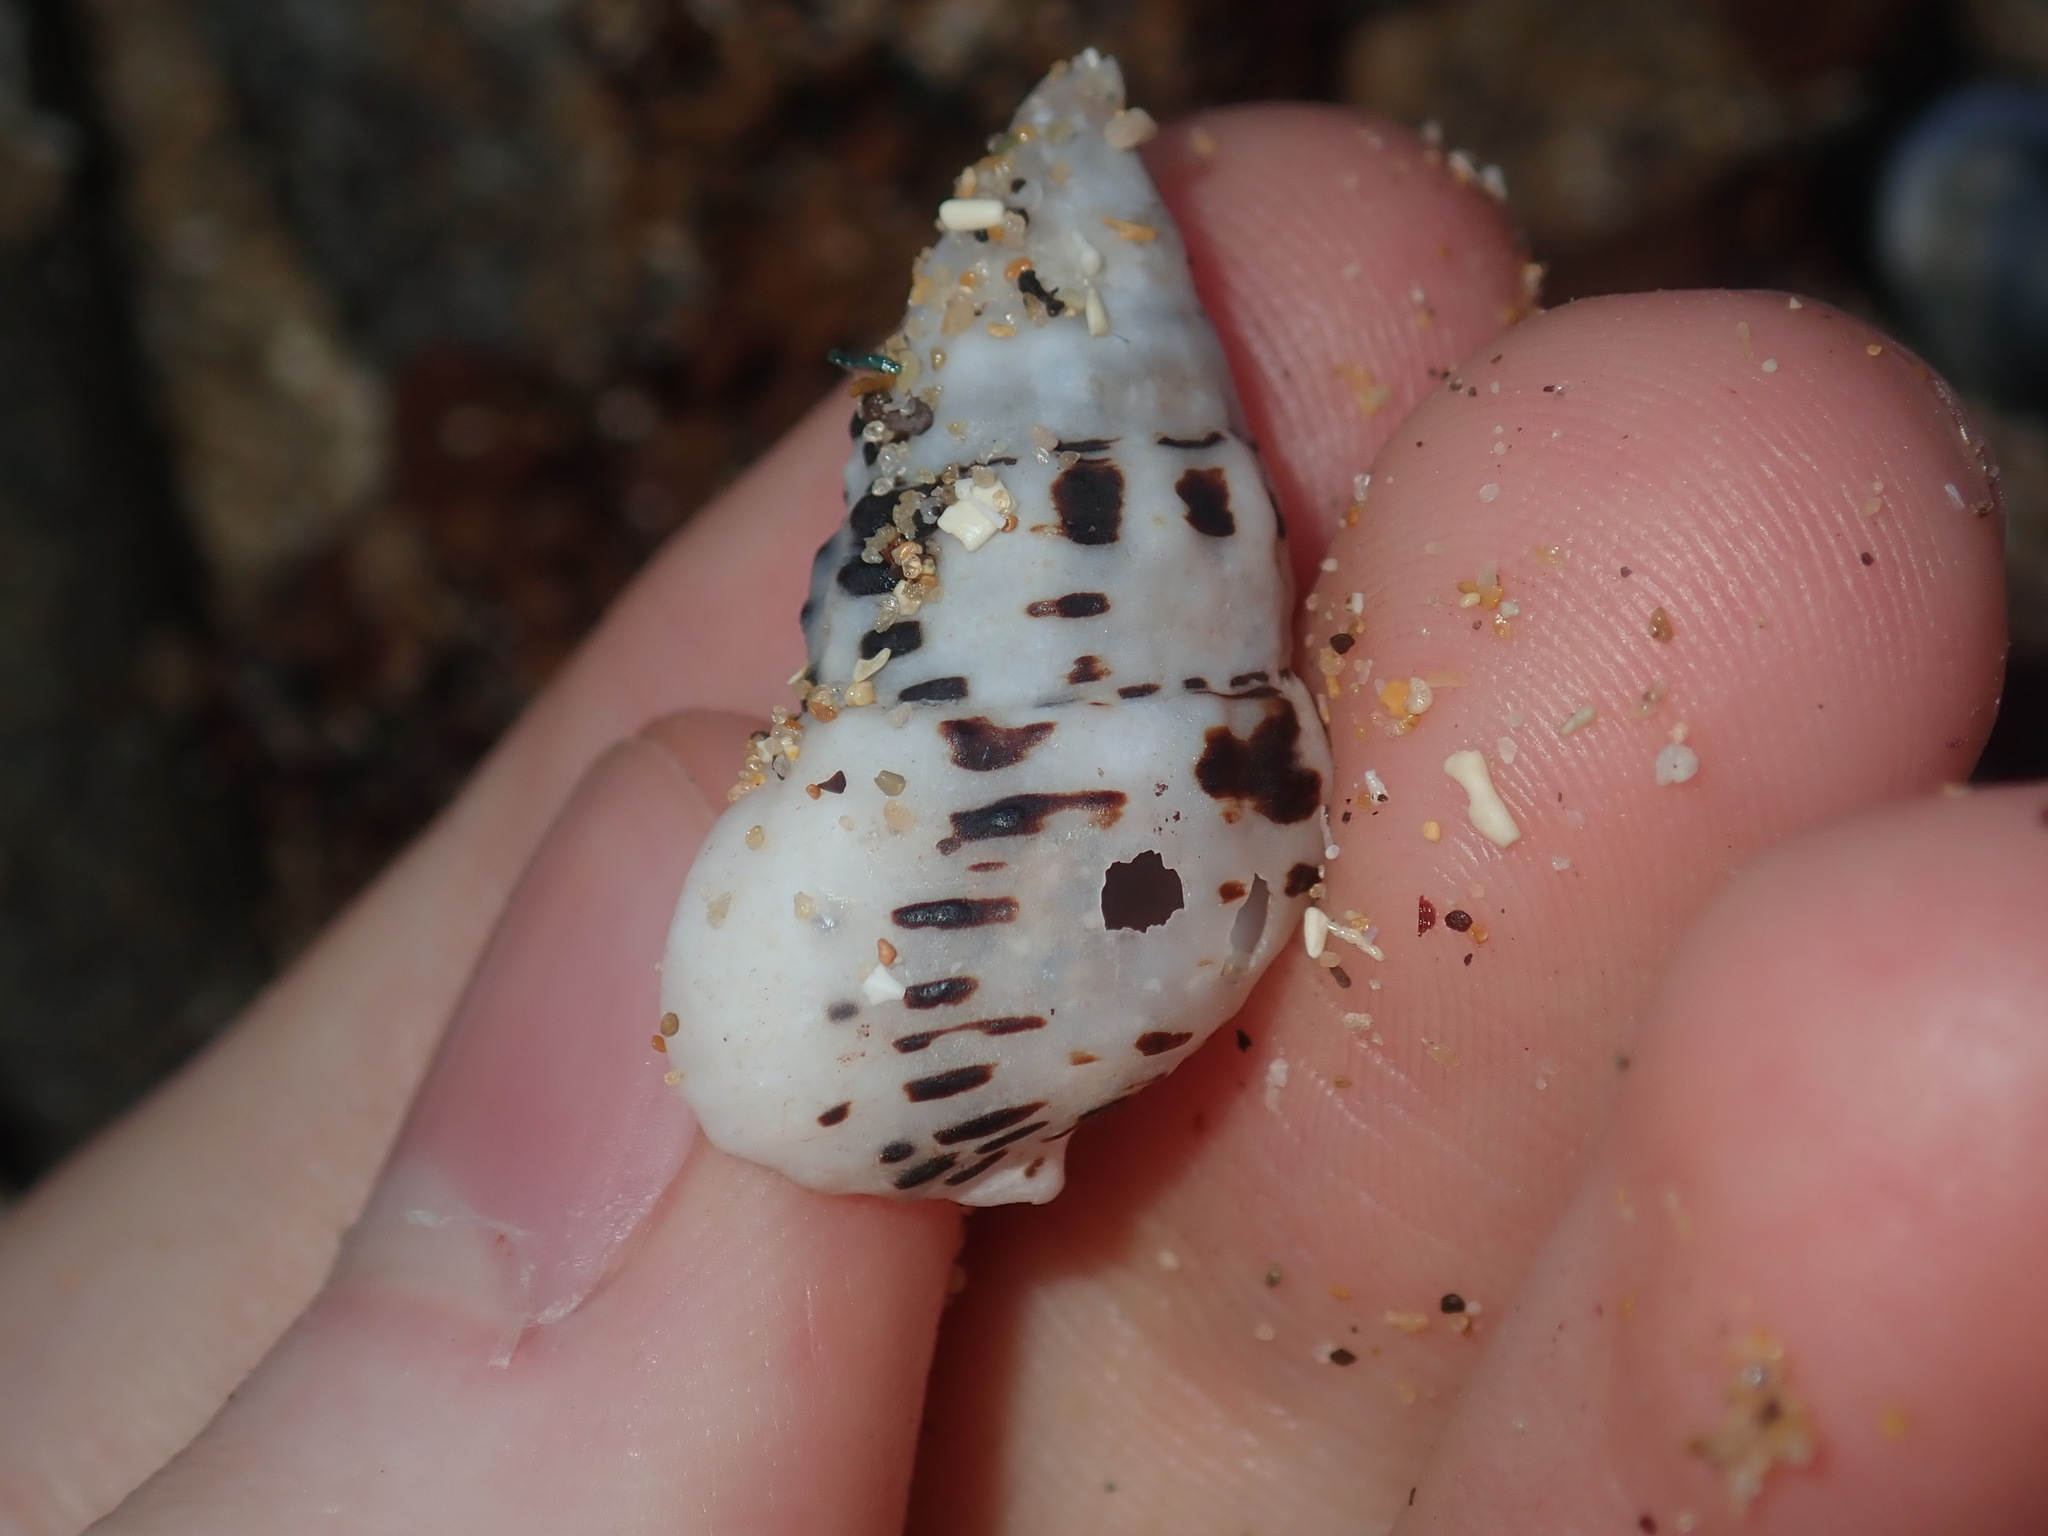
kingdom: Animalia
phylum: Mollusca
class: Gastropoda
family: Cerithiidae
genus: Clypeomorus
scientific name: Clypeomorus petrosa
